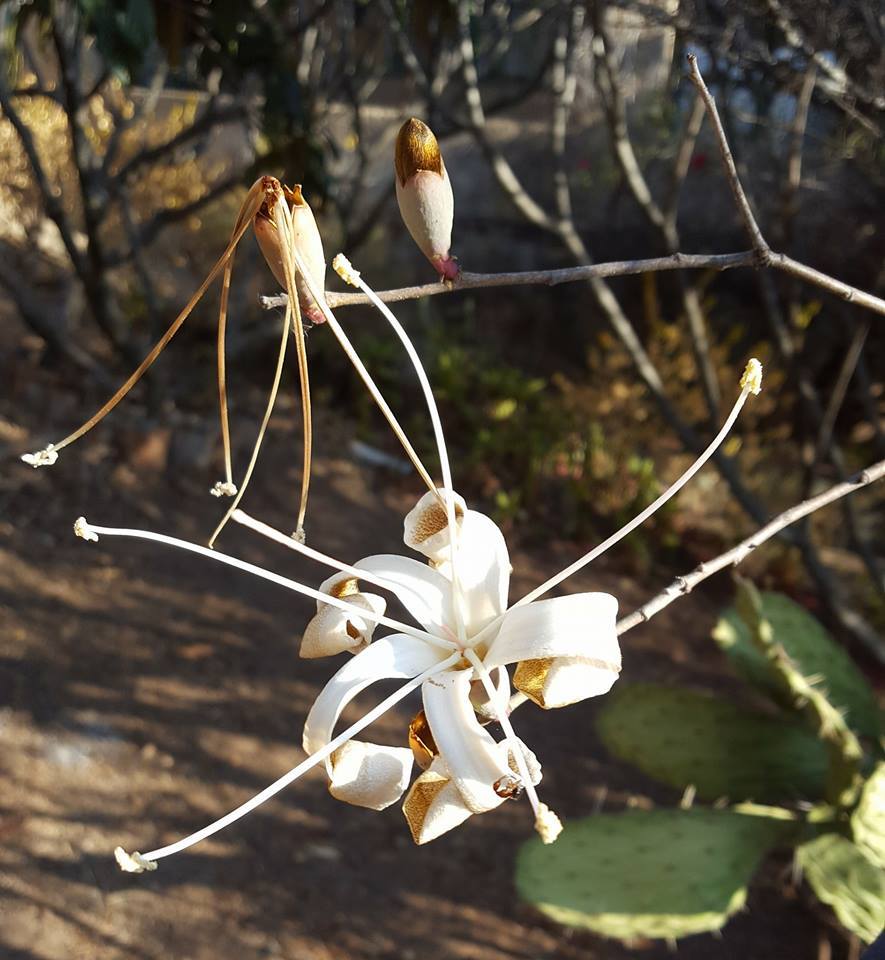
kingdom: Plantae
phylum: Tracheophyta
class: Magnoliopsida
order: Malvales
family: Malvaceae
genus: Ceiba
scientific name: Ceiba aesculifolia
